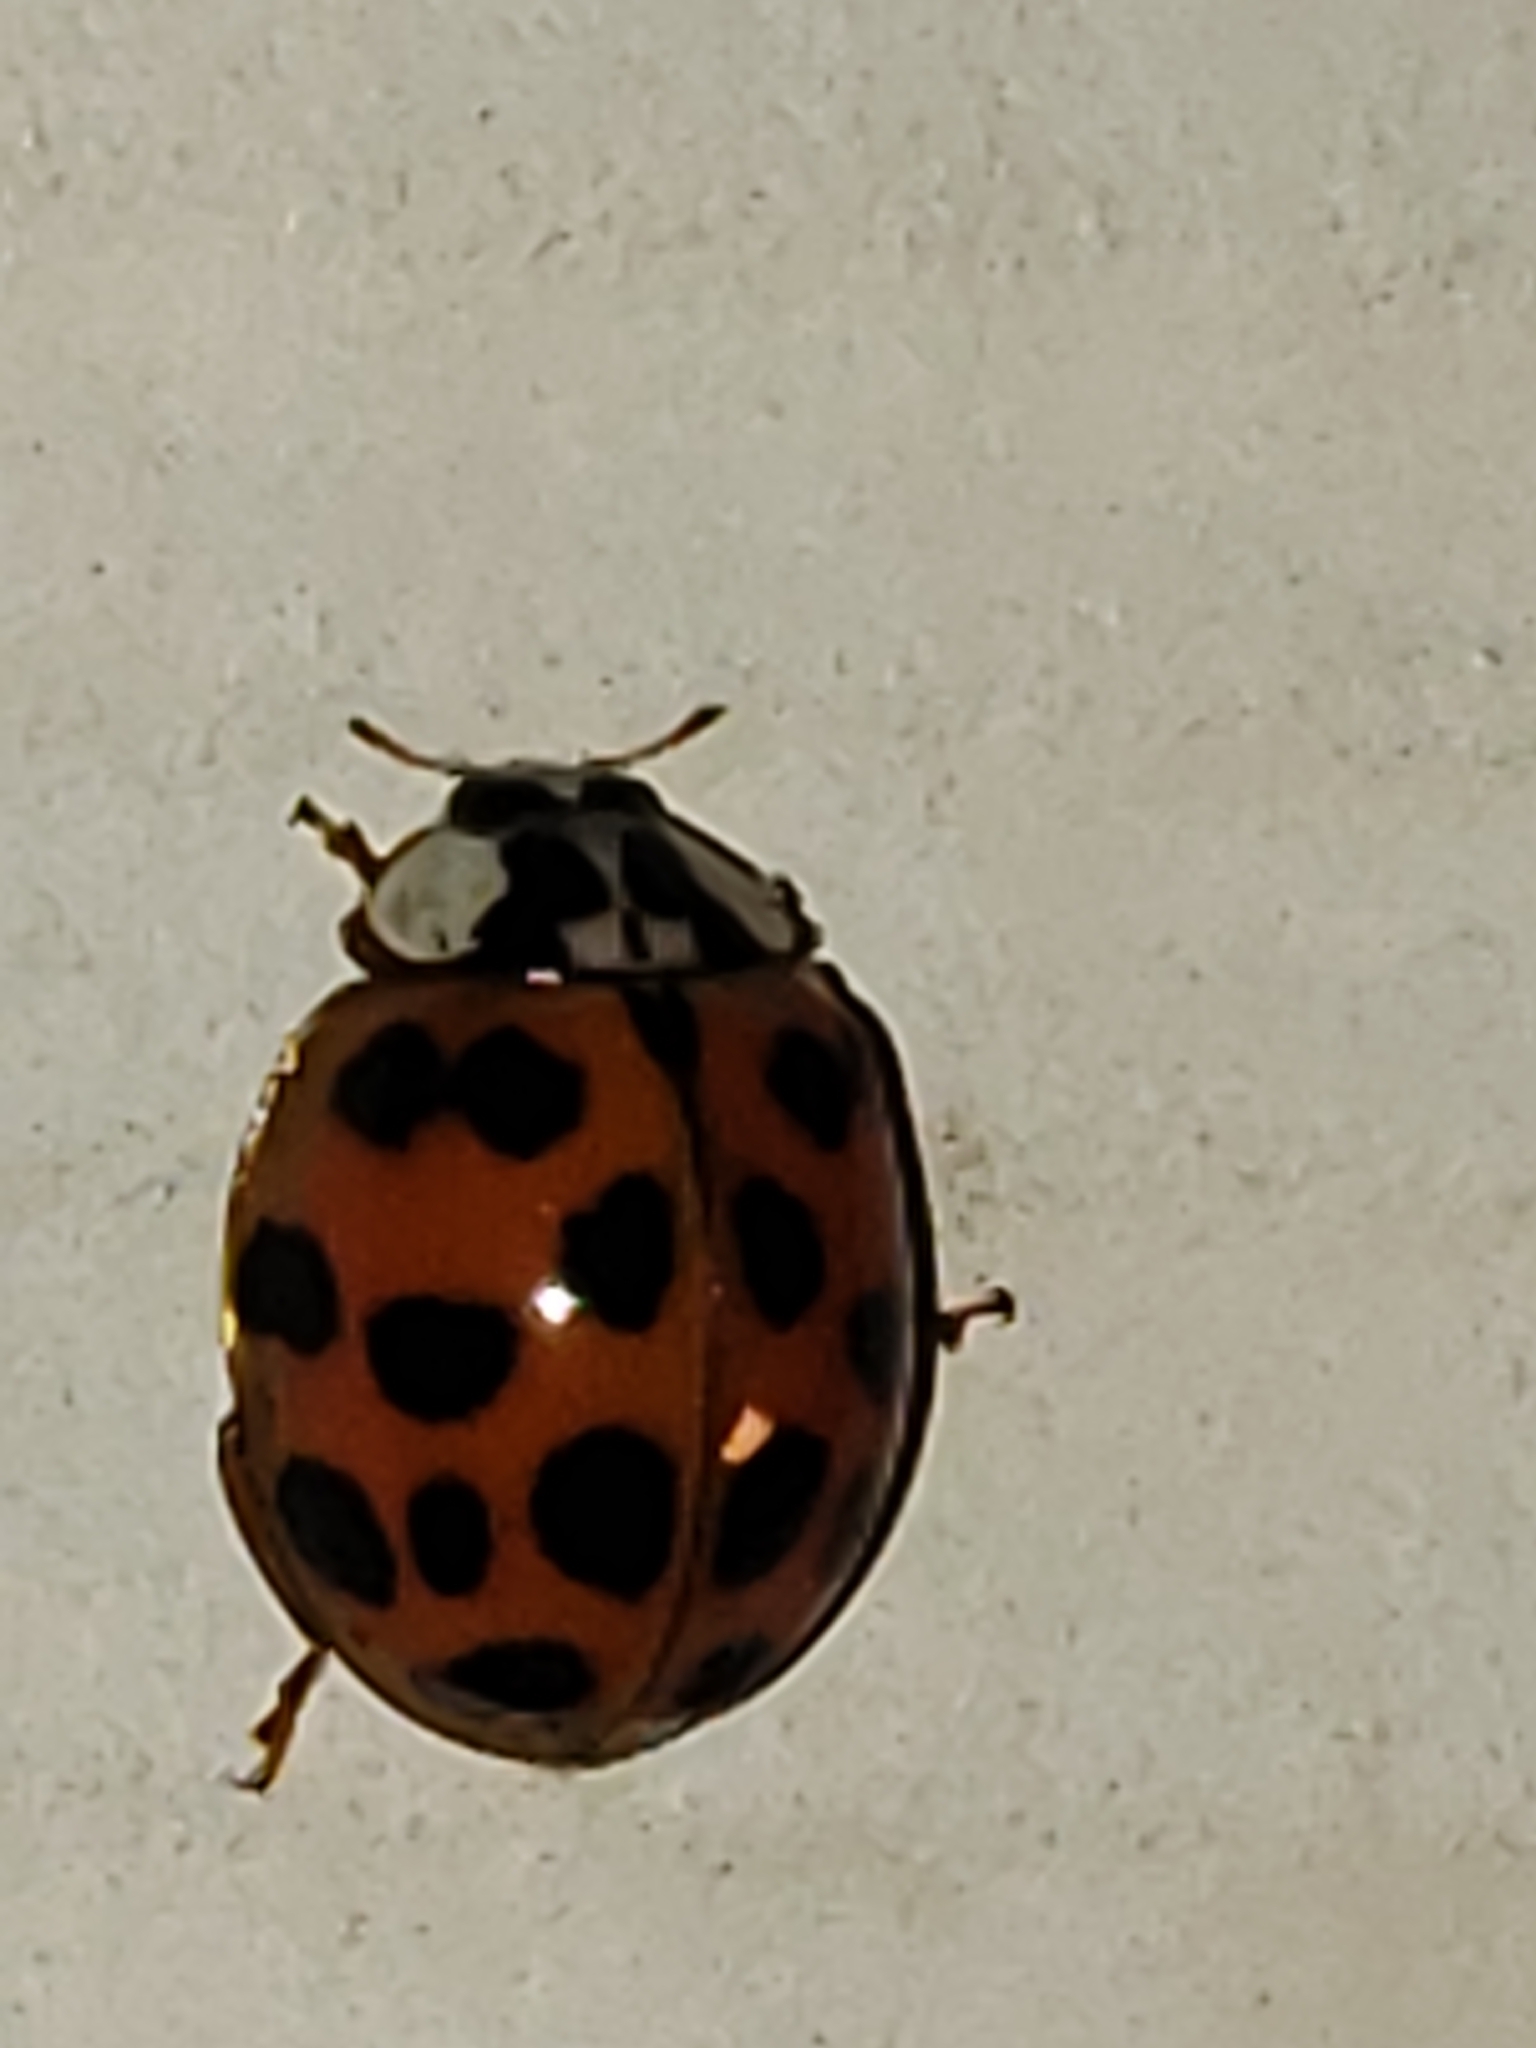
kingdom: Animalia
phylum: Arthropoda
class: Insecta
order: Coleoptera
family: Coccinellidae
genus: Harmonia
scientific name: Harmonia axyridis
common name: Harlequin ladybird
